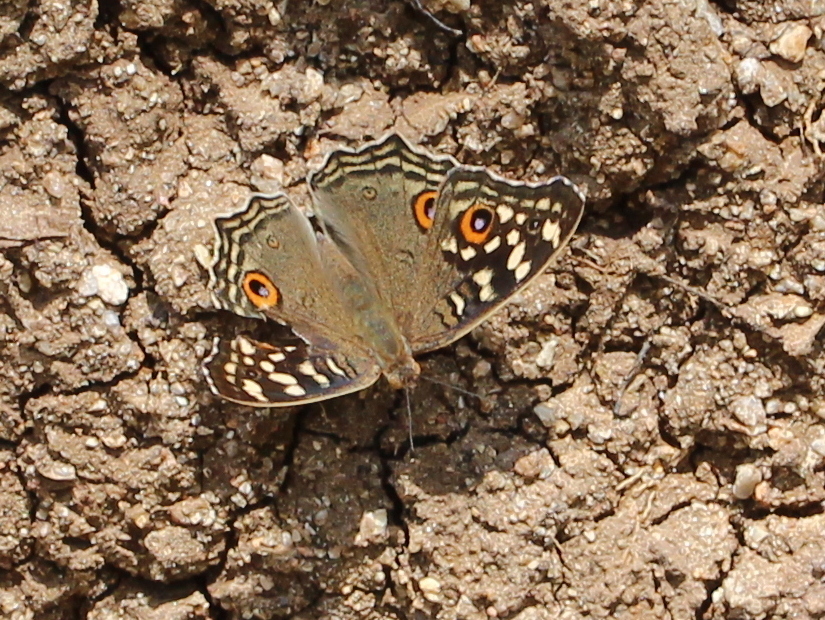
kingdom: Animalia
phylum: Arthropoda
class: Insecta
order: Lepidoptera
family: Nymphalidae
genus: Junonia
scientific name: Junonia lemonias
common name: Lemon pansy
